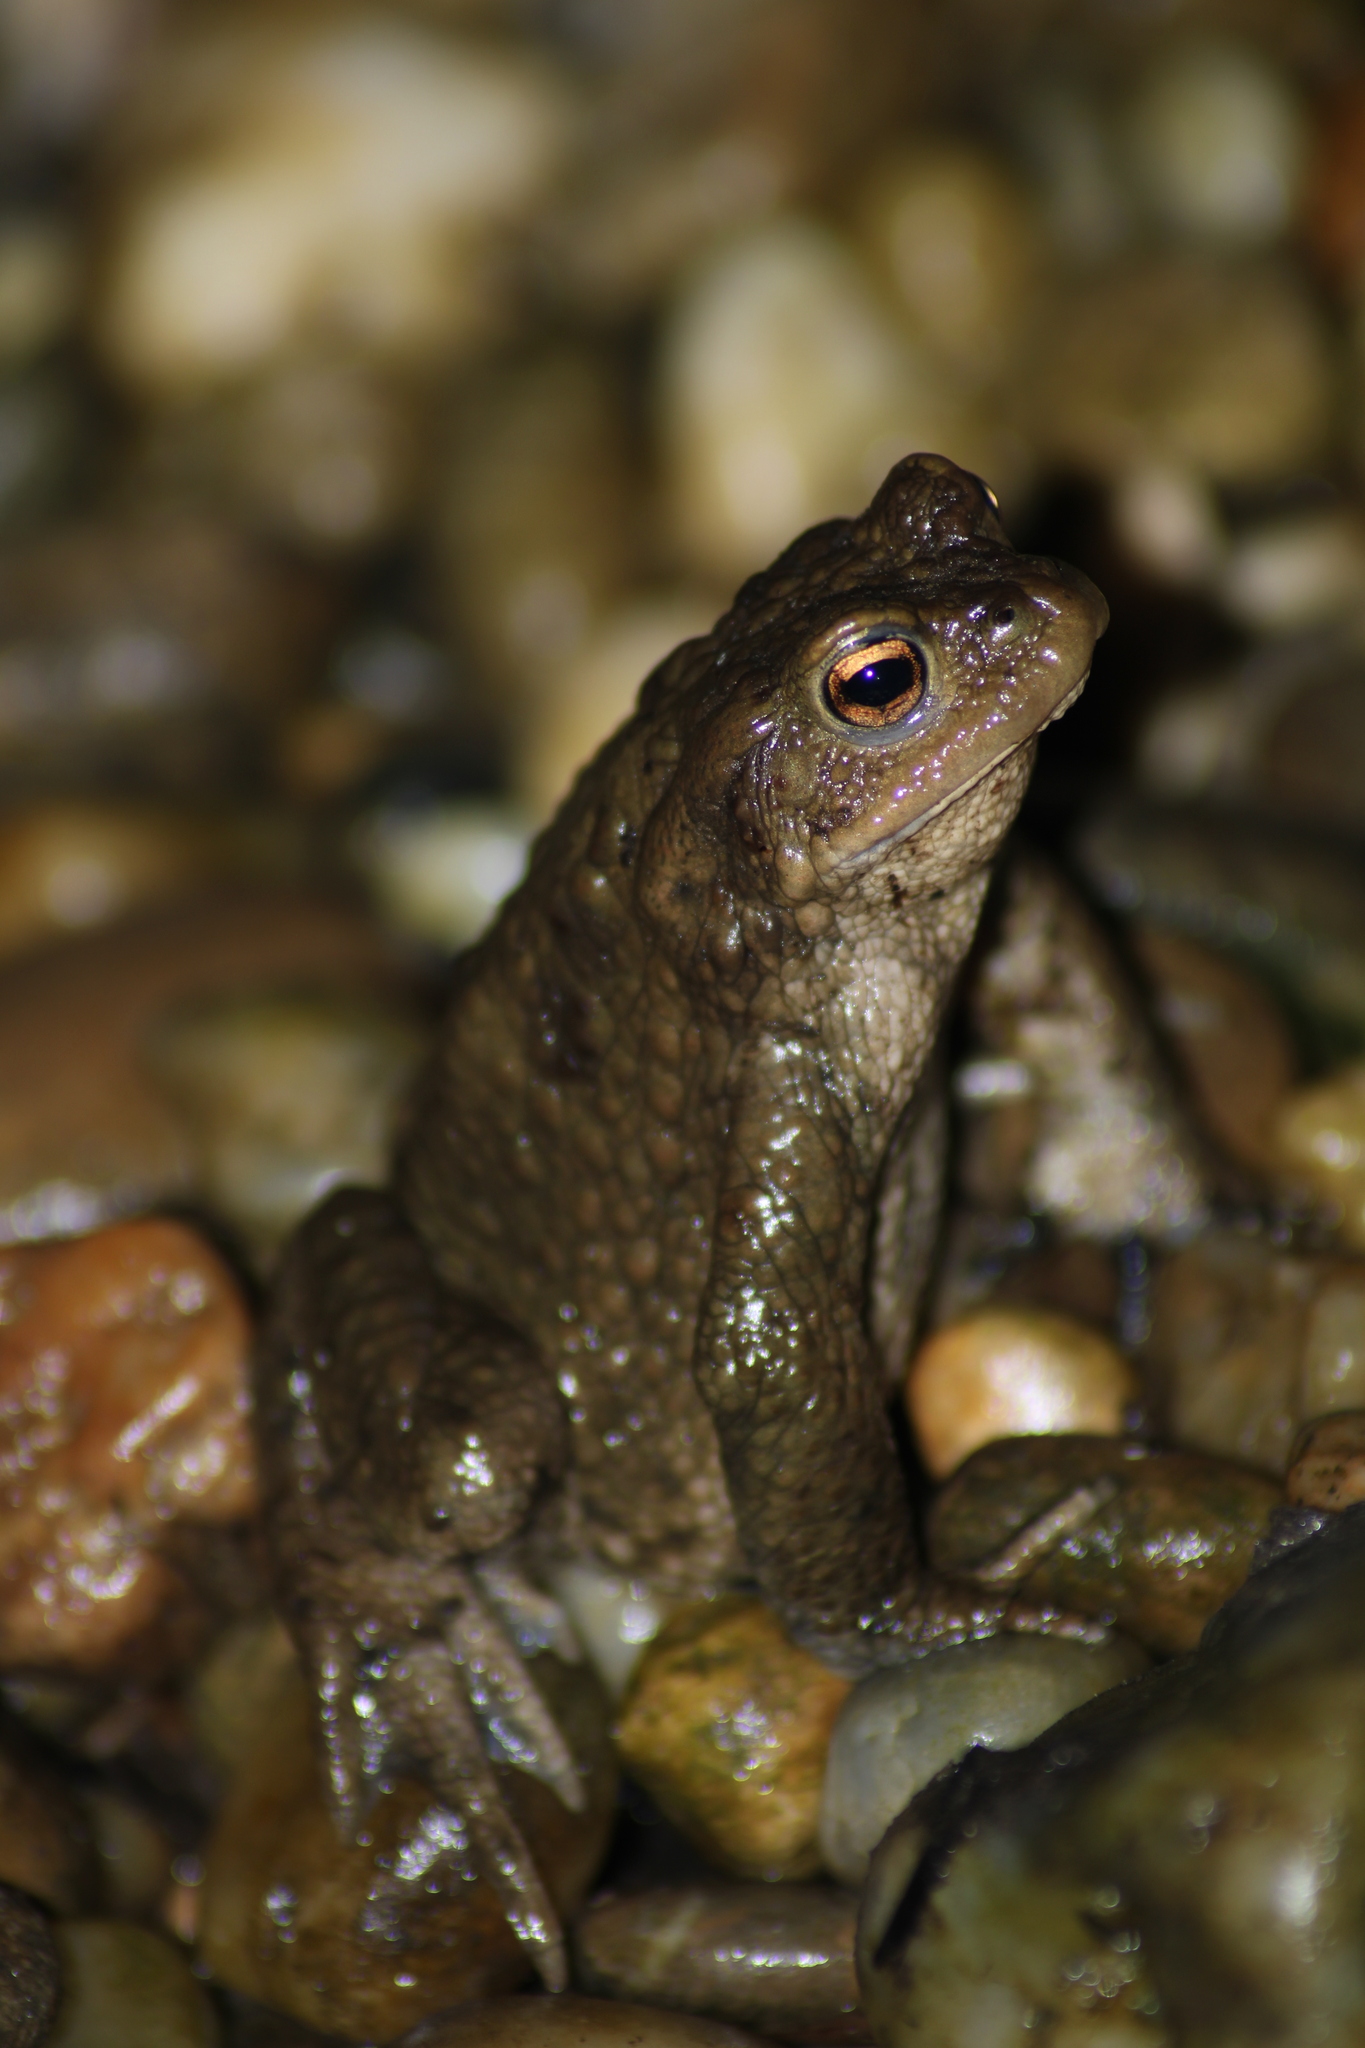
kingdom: Animalia
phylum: Chordata
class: Amphibia
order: Anura
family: Bufonidae
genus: Bufo
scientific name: Bufo bufo
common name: Common toad
